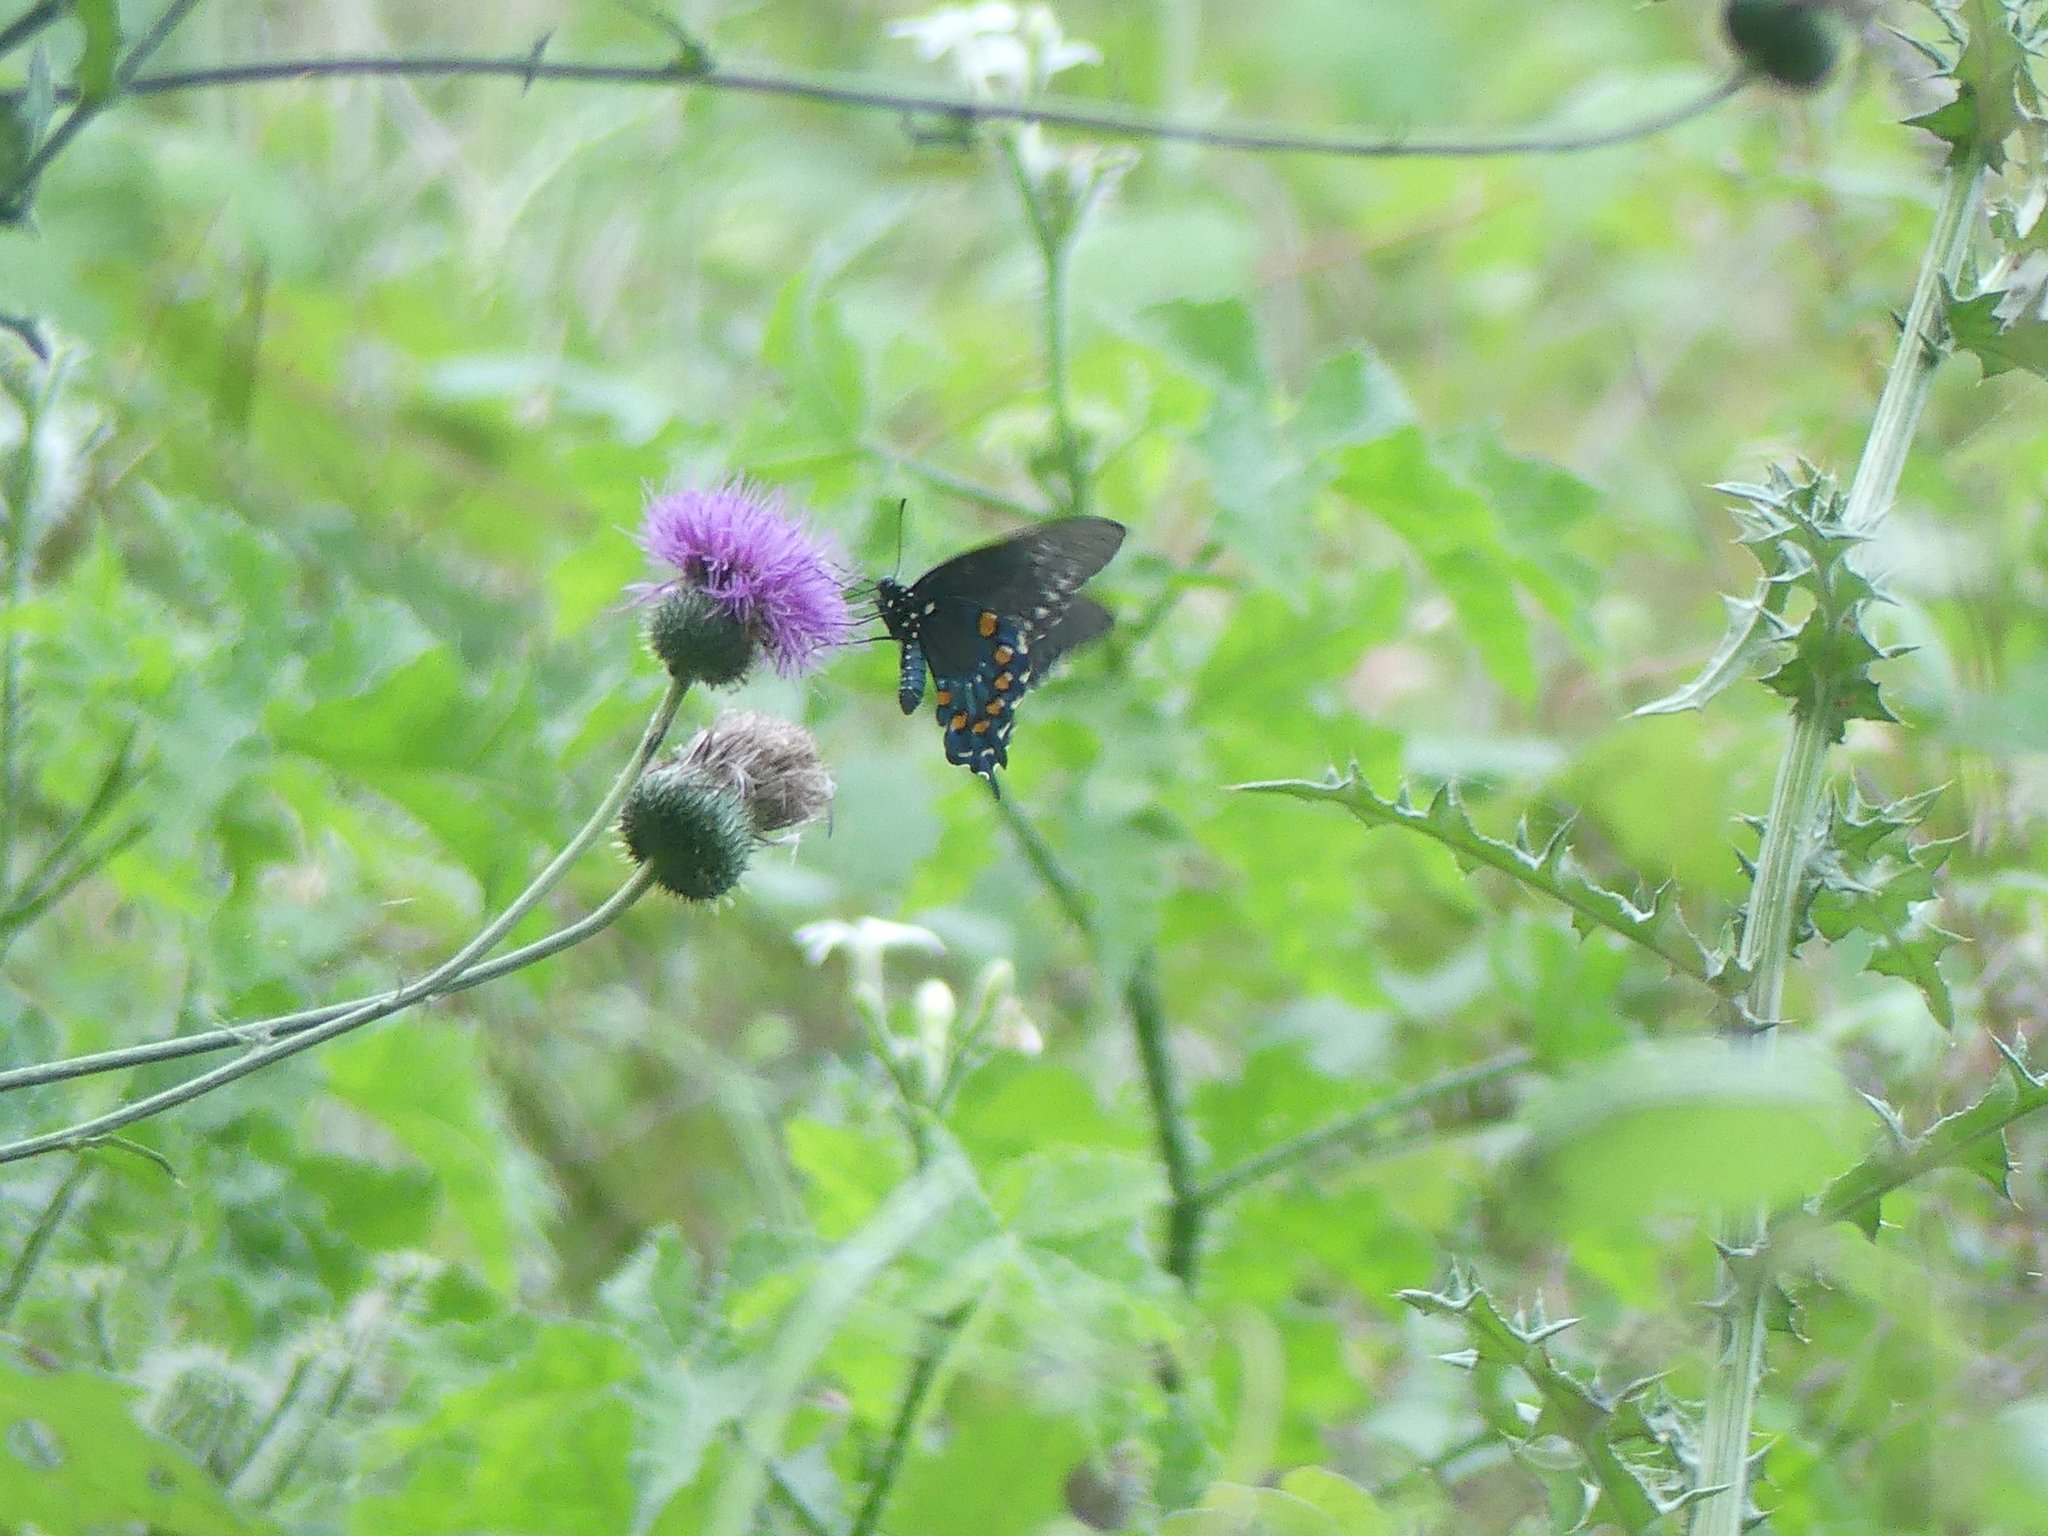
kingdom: Animalia
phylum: Arthropoda
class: Insecta
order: Lepidoptera
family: Papilionidae
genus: Battus
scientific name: Battus philenor
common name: Pipevine swallowtail
